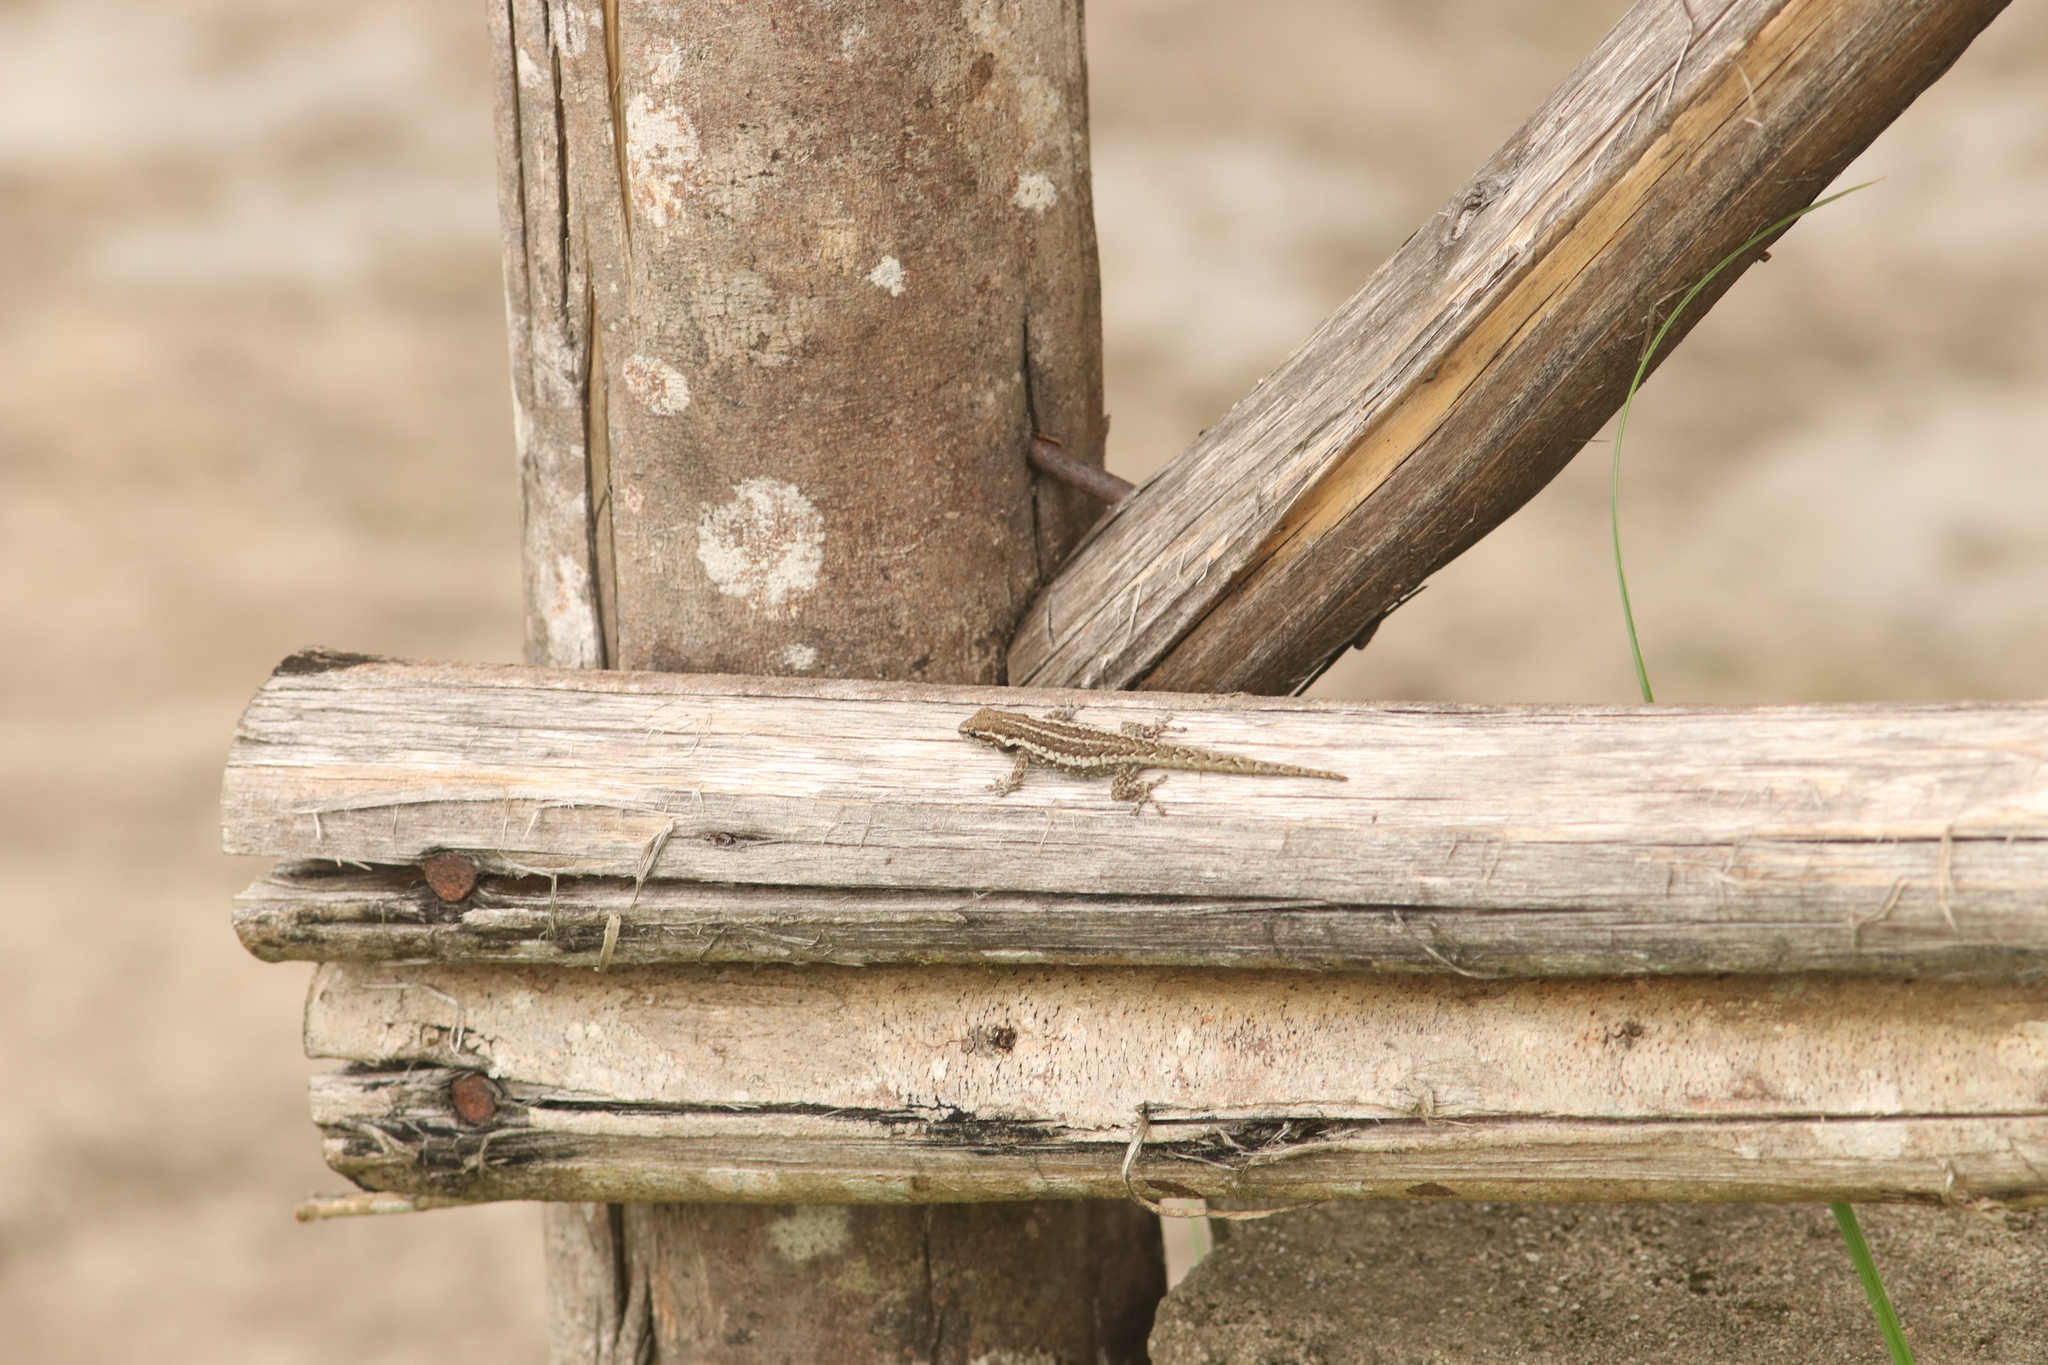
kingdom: Animalia
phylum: Chordata
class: Squamata
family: Gekkonidae
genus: Lygodactylus
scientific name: Lygodactylus angularis
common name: Angulate dwarf gecko
